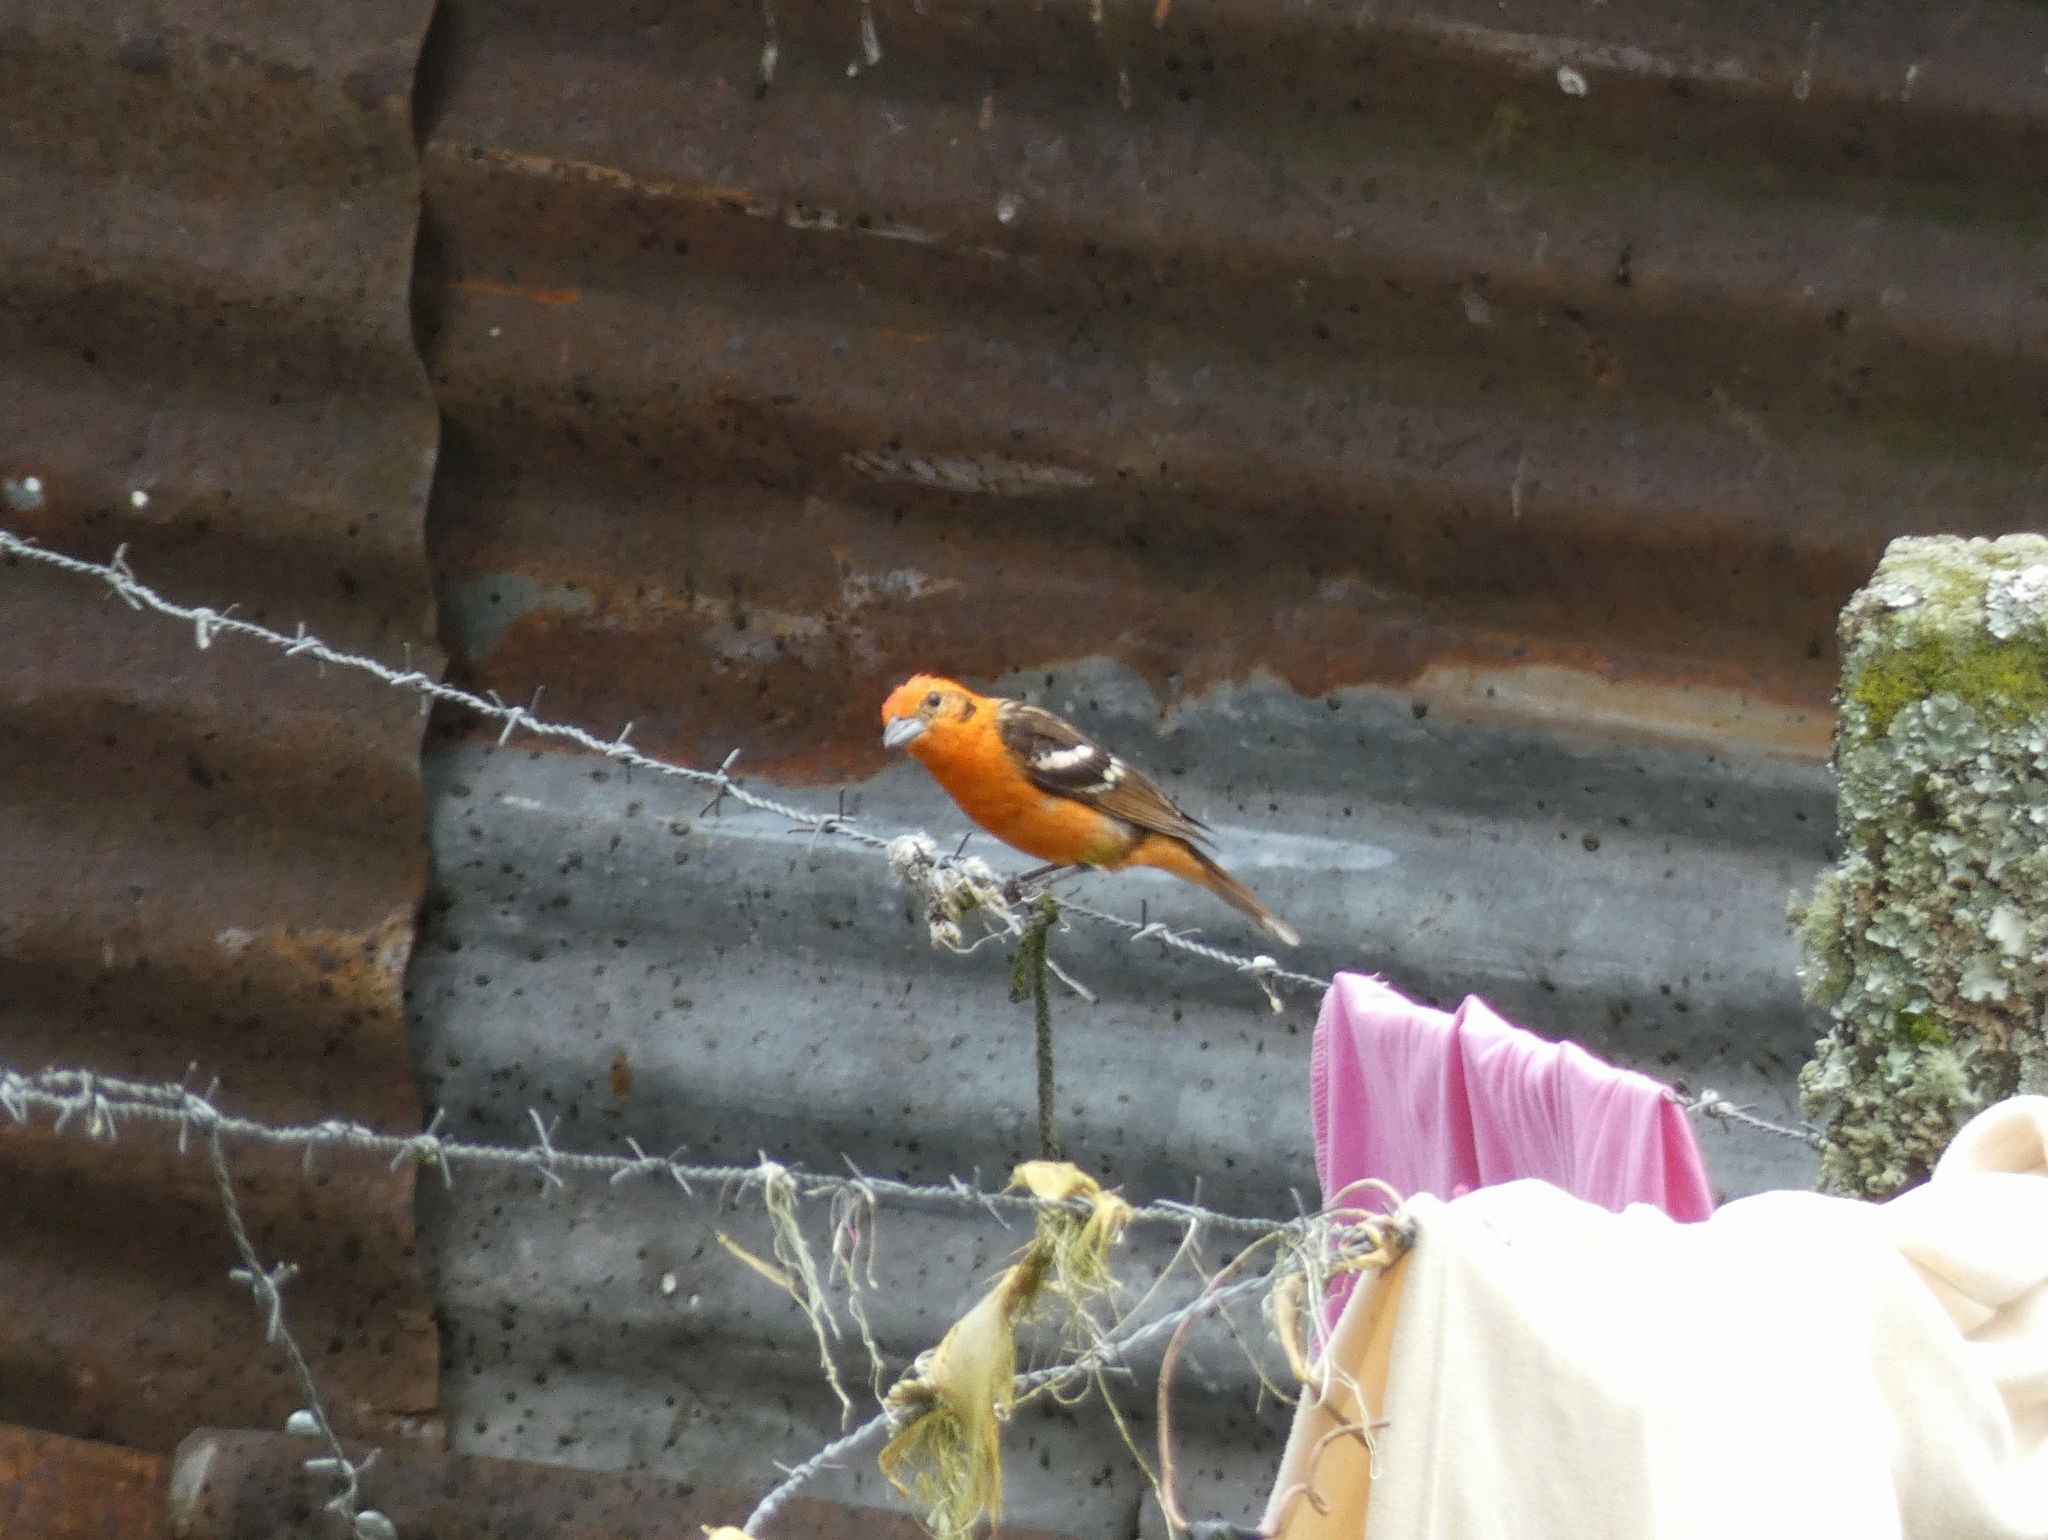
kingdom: Animalia
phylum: Chordata
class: Aves
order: Passeriformes
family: Cardinalidae
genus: Piranga
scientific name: Piranga bidentata
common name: Flame-colored tanager
